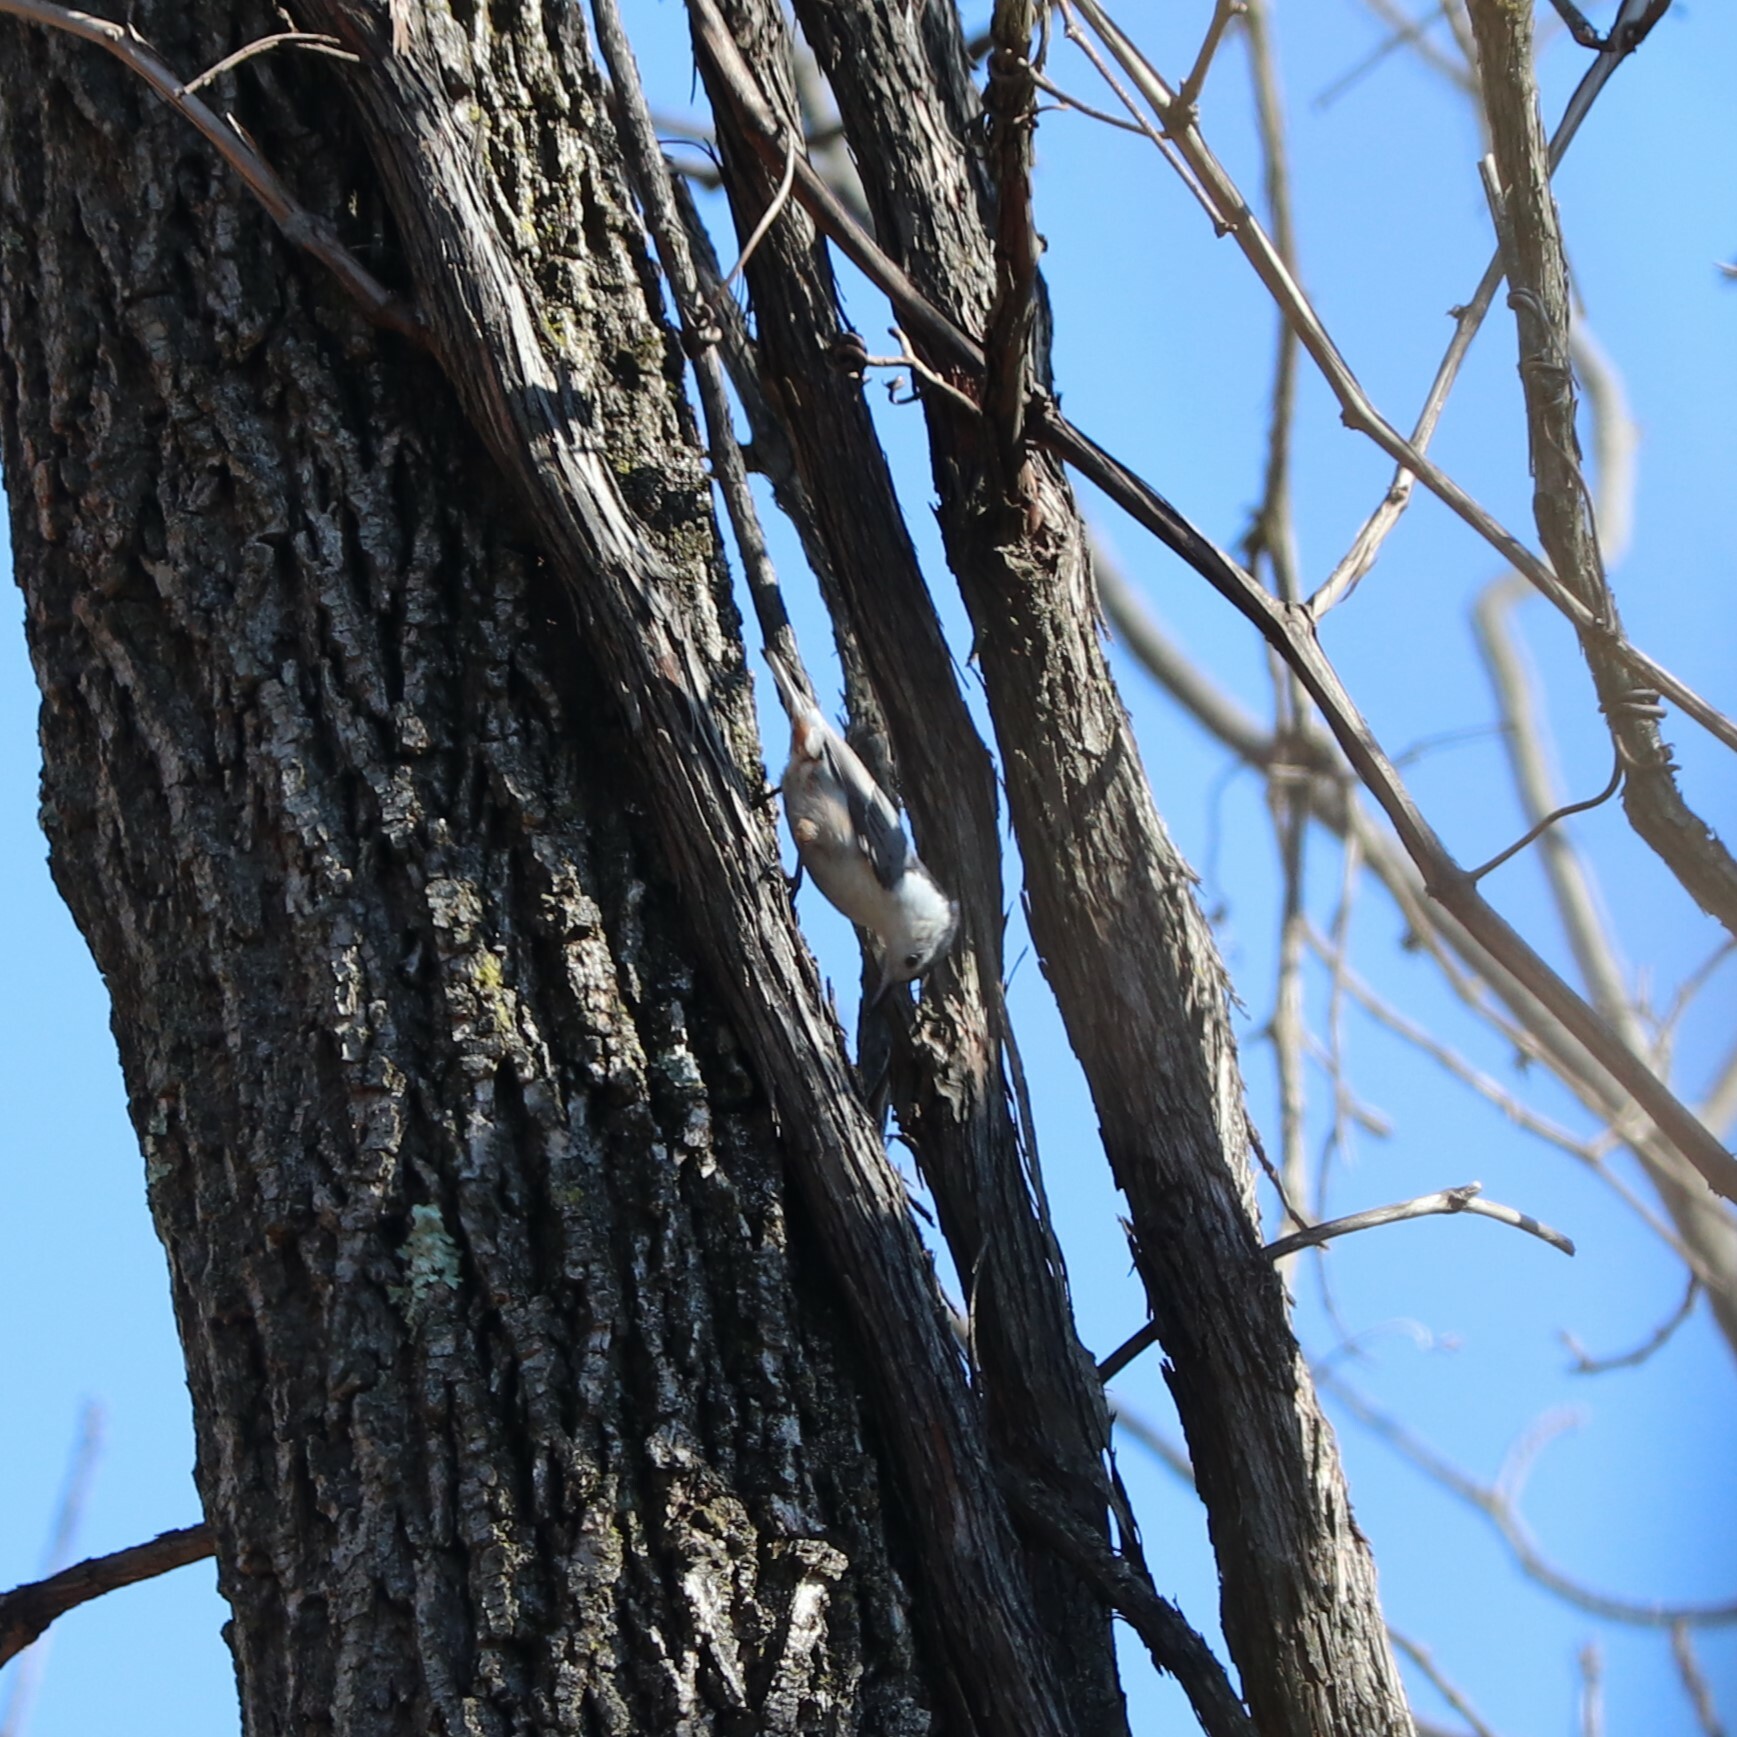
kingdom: Animalia
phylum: Chordata
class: Aves
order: Passeriformes
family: Sittidae
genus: Sitta
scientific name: Sitta carolinensis
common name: White-breasted nuthatch
